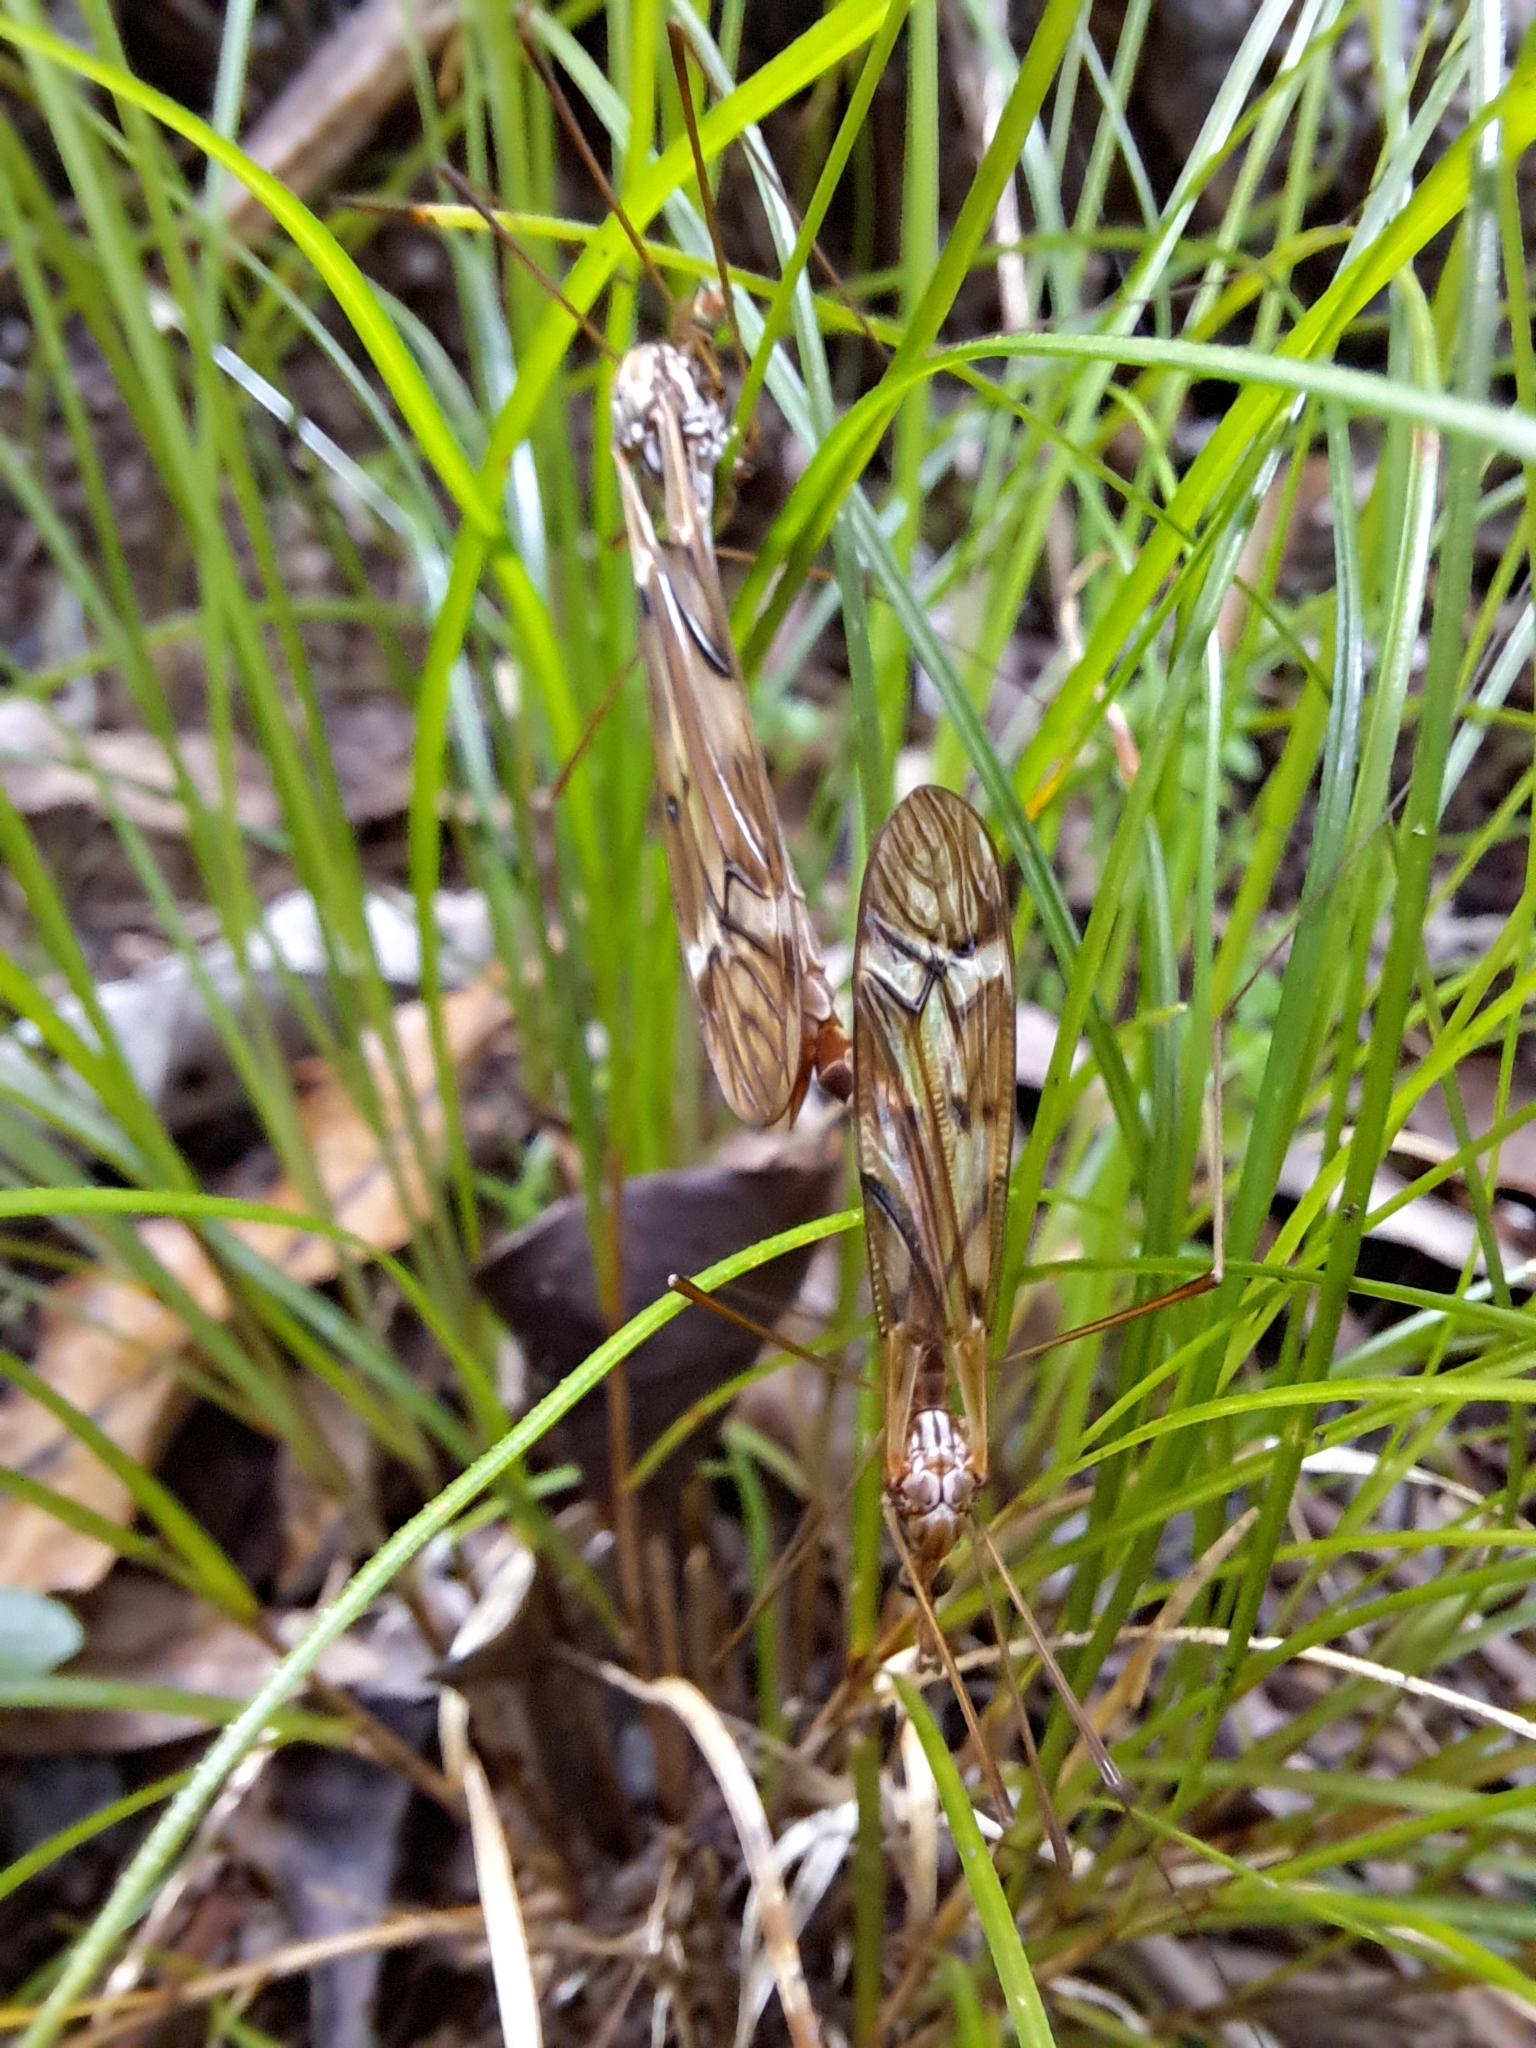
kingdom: Animalia
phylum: Arthropoda
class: Insecta
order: Diptera
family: Tipulidae
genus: Zelandotipula
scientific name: Zelandotipula fulva
